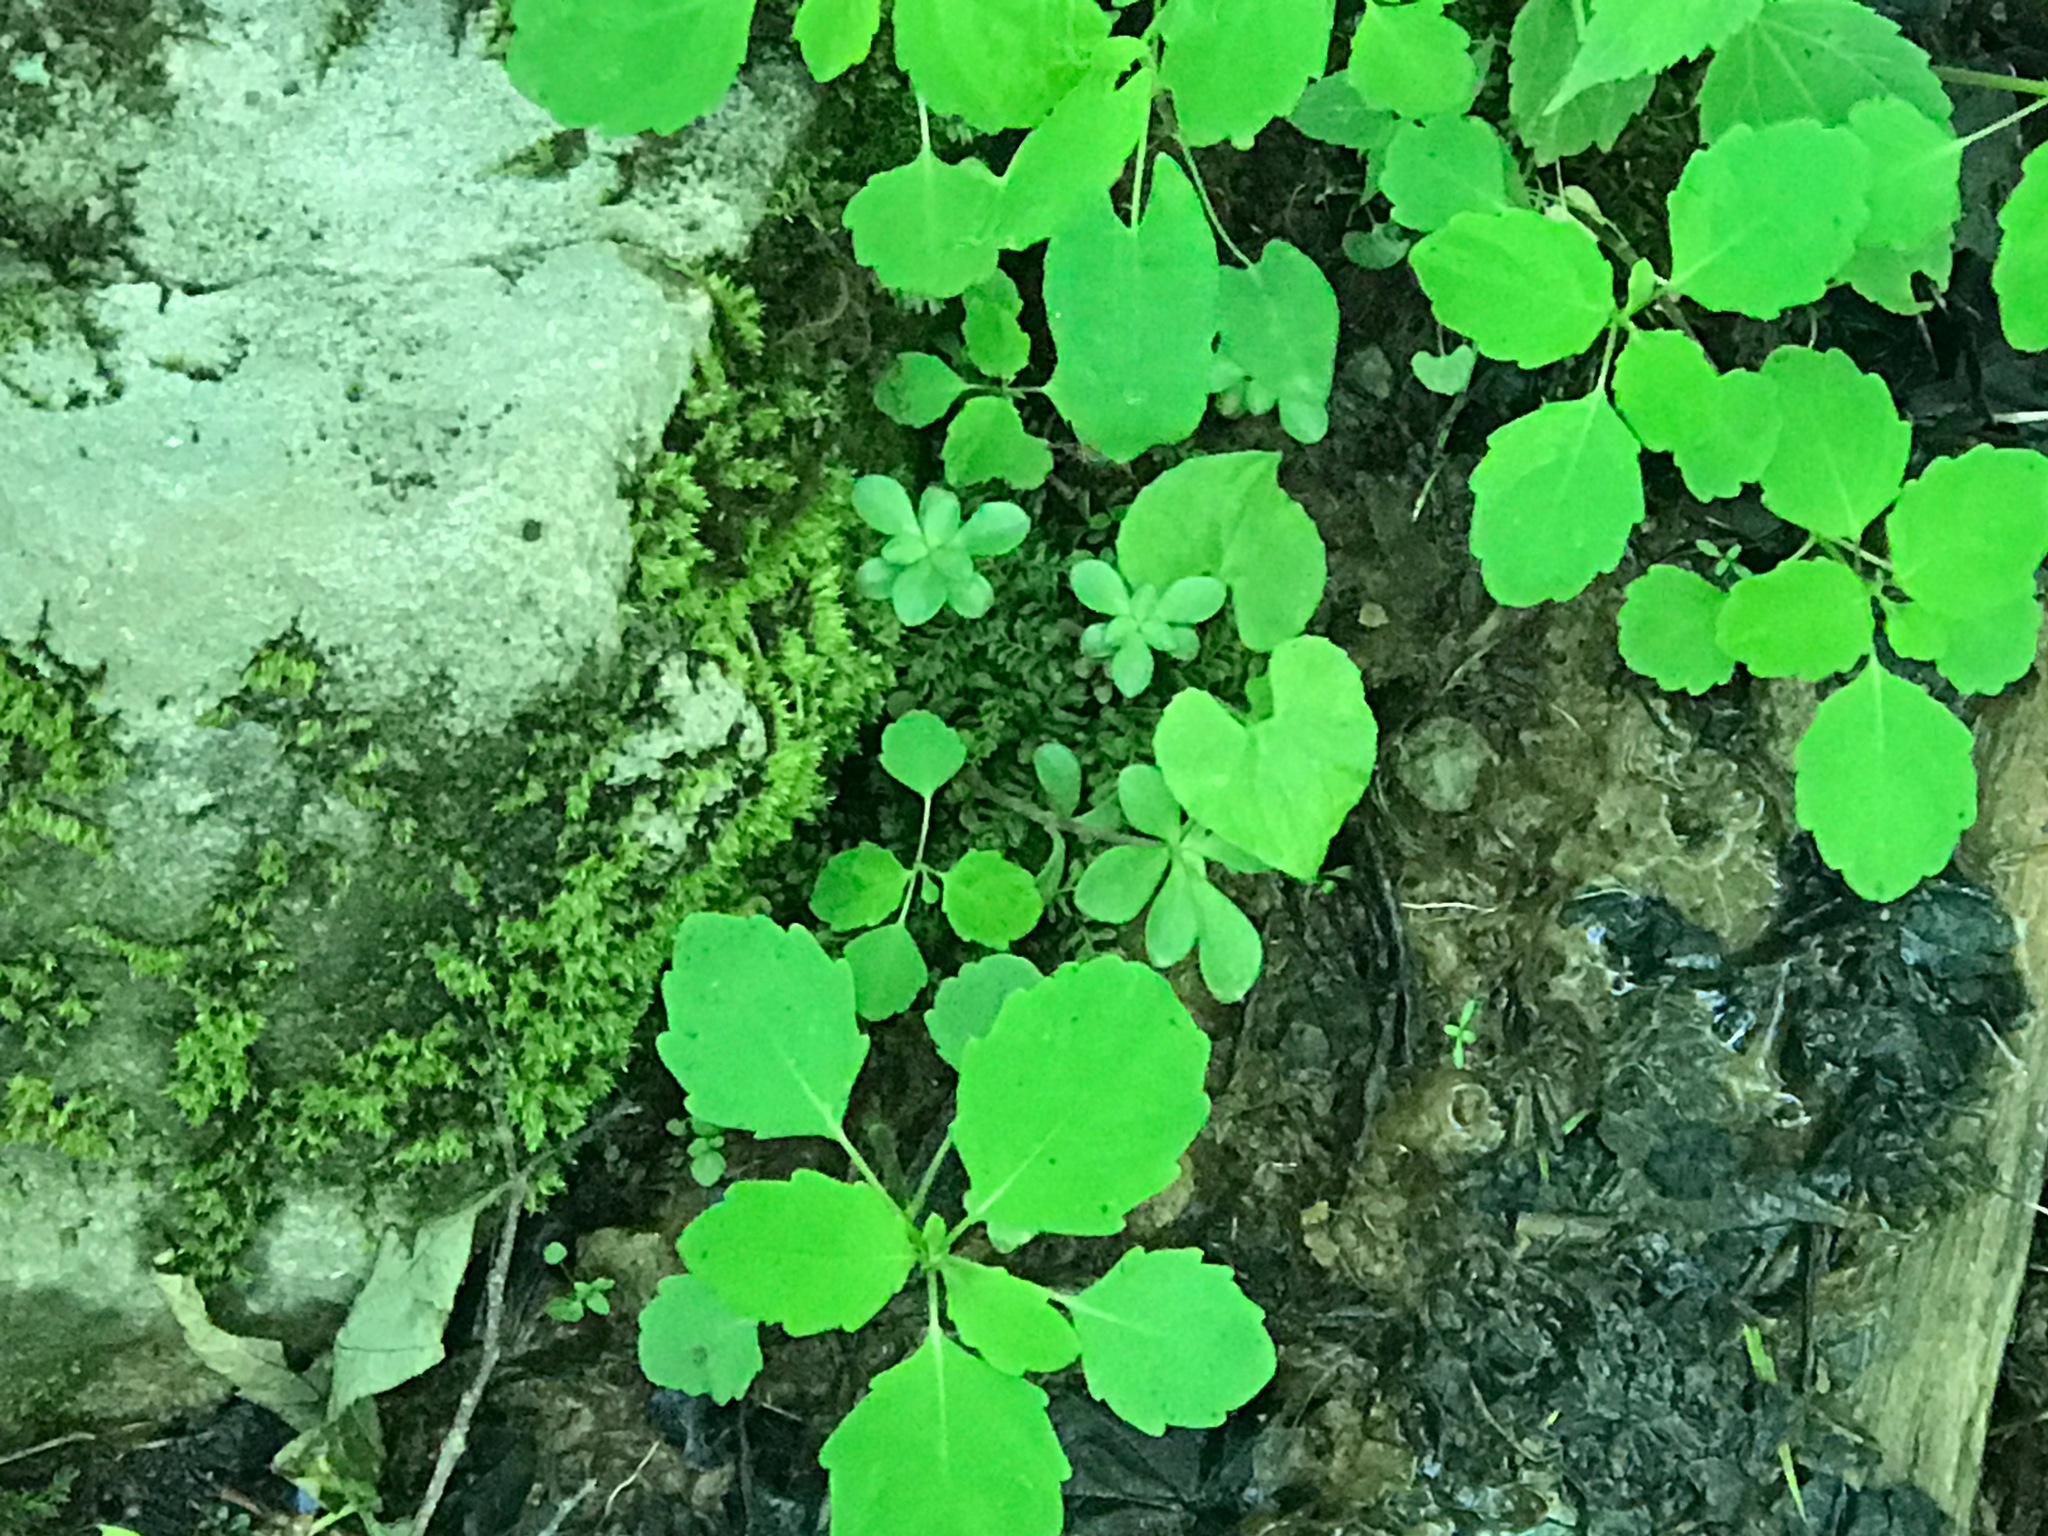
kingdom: Plantae
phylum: Tracheophyta
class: Magnoliopsida
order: Saxifragales
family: Crassulaceae
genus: Sedum
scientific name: Sedum ternatum
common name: Wild stonecrop
